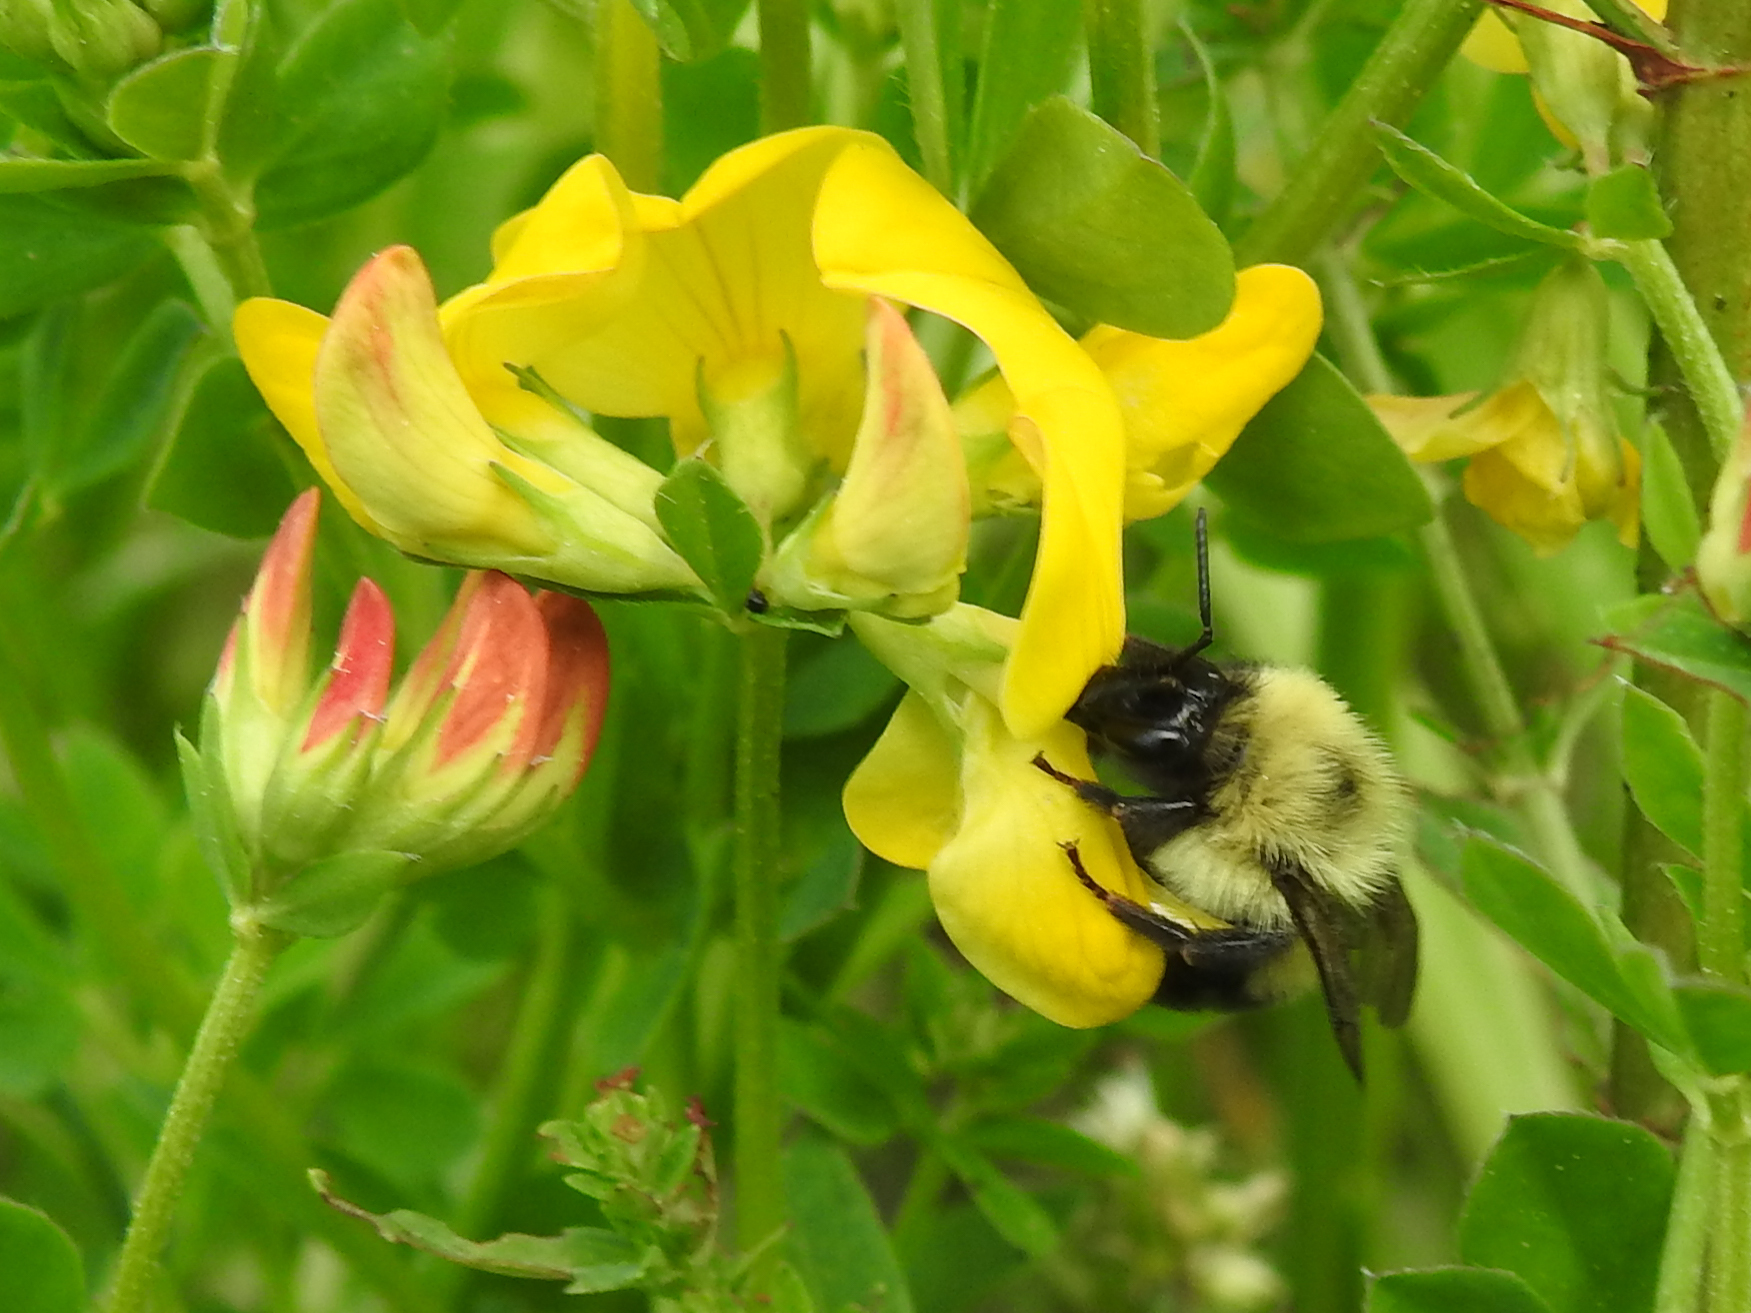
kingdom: Animalia
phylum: Arthropoda
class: Insecta
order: Hymenoptera
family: Apidae
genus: Bombus
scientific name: Bombus impatiens
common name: Common eastern bumble bee
